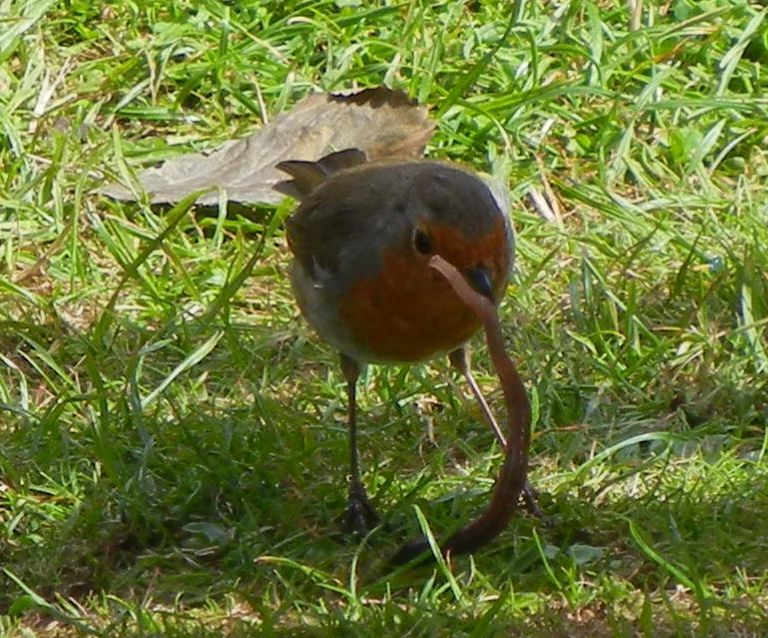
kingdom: Animalia
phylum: Chordata
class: Aves
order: Passeriformes
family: Muscicapidae
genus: Erithacus
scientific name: Erithacus rubecula
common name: European robin
